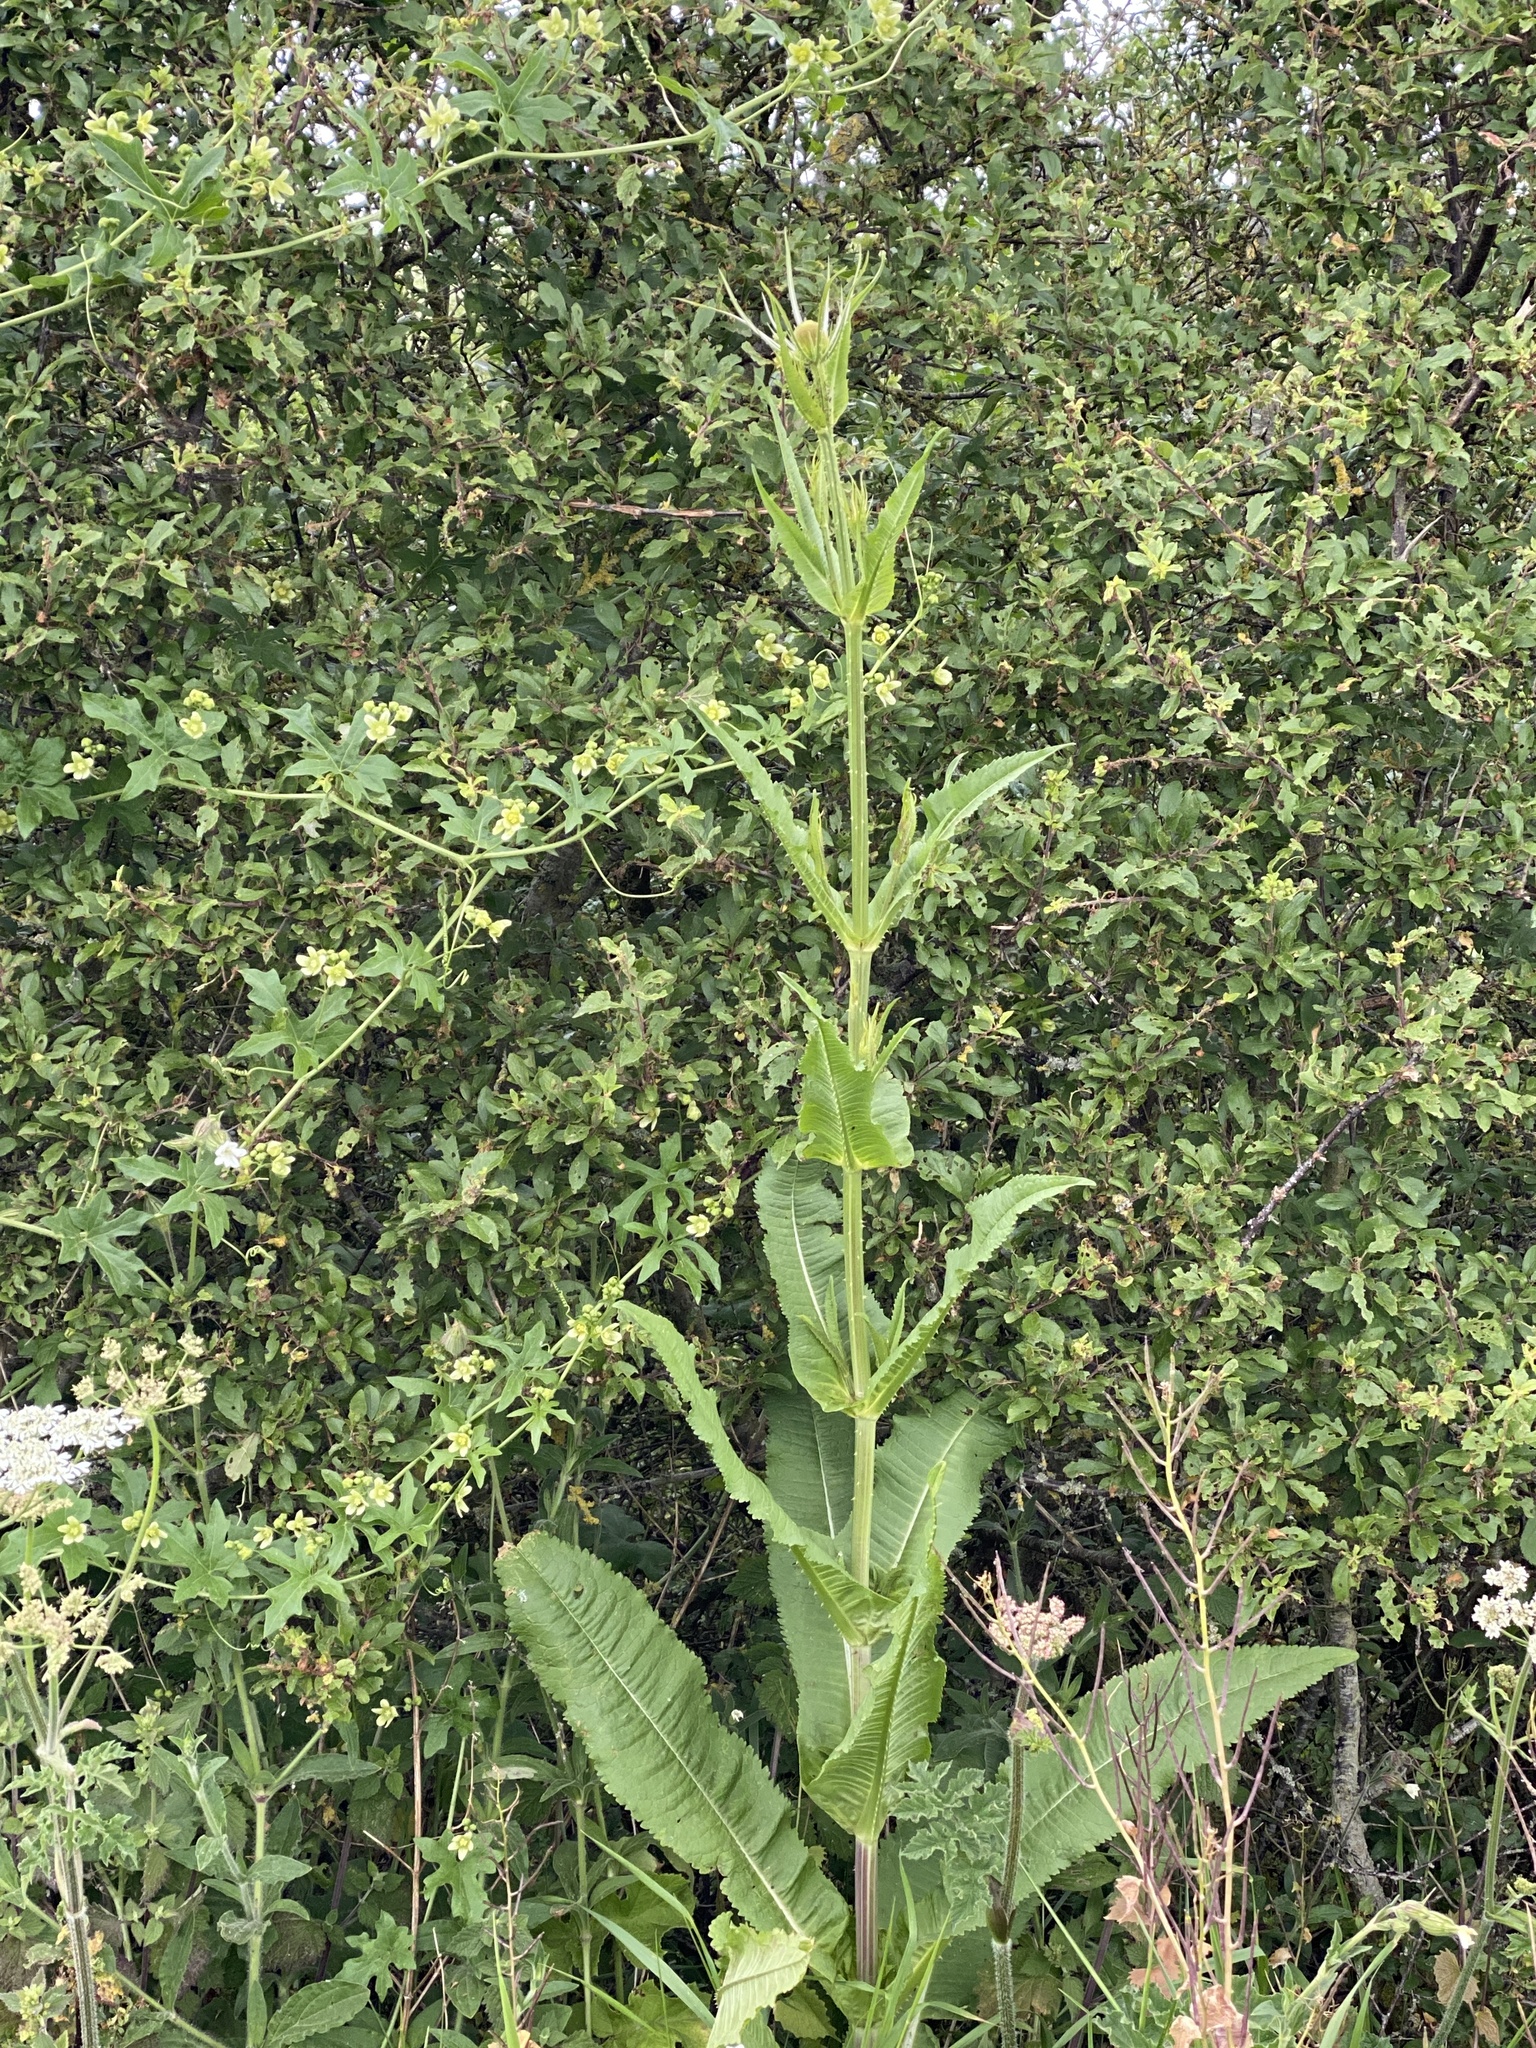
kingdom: Plantae
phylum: Tracheophyta
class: Magnoliopsida
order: Dipsacales
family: Caprifoliaceae
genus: Dipsacus
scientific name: Dipsacus fullonum
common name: Teasel
